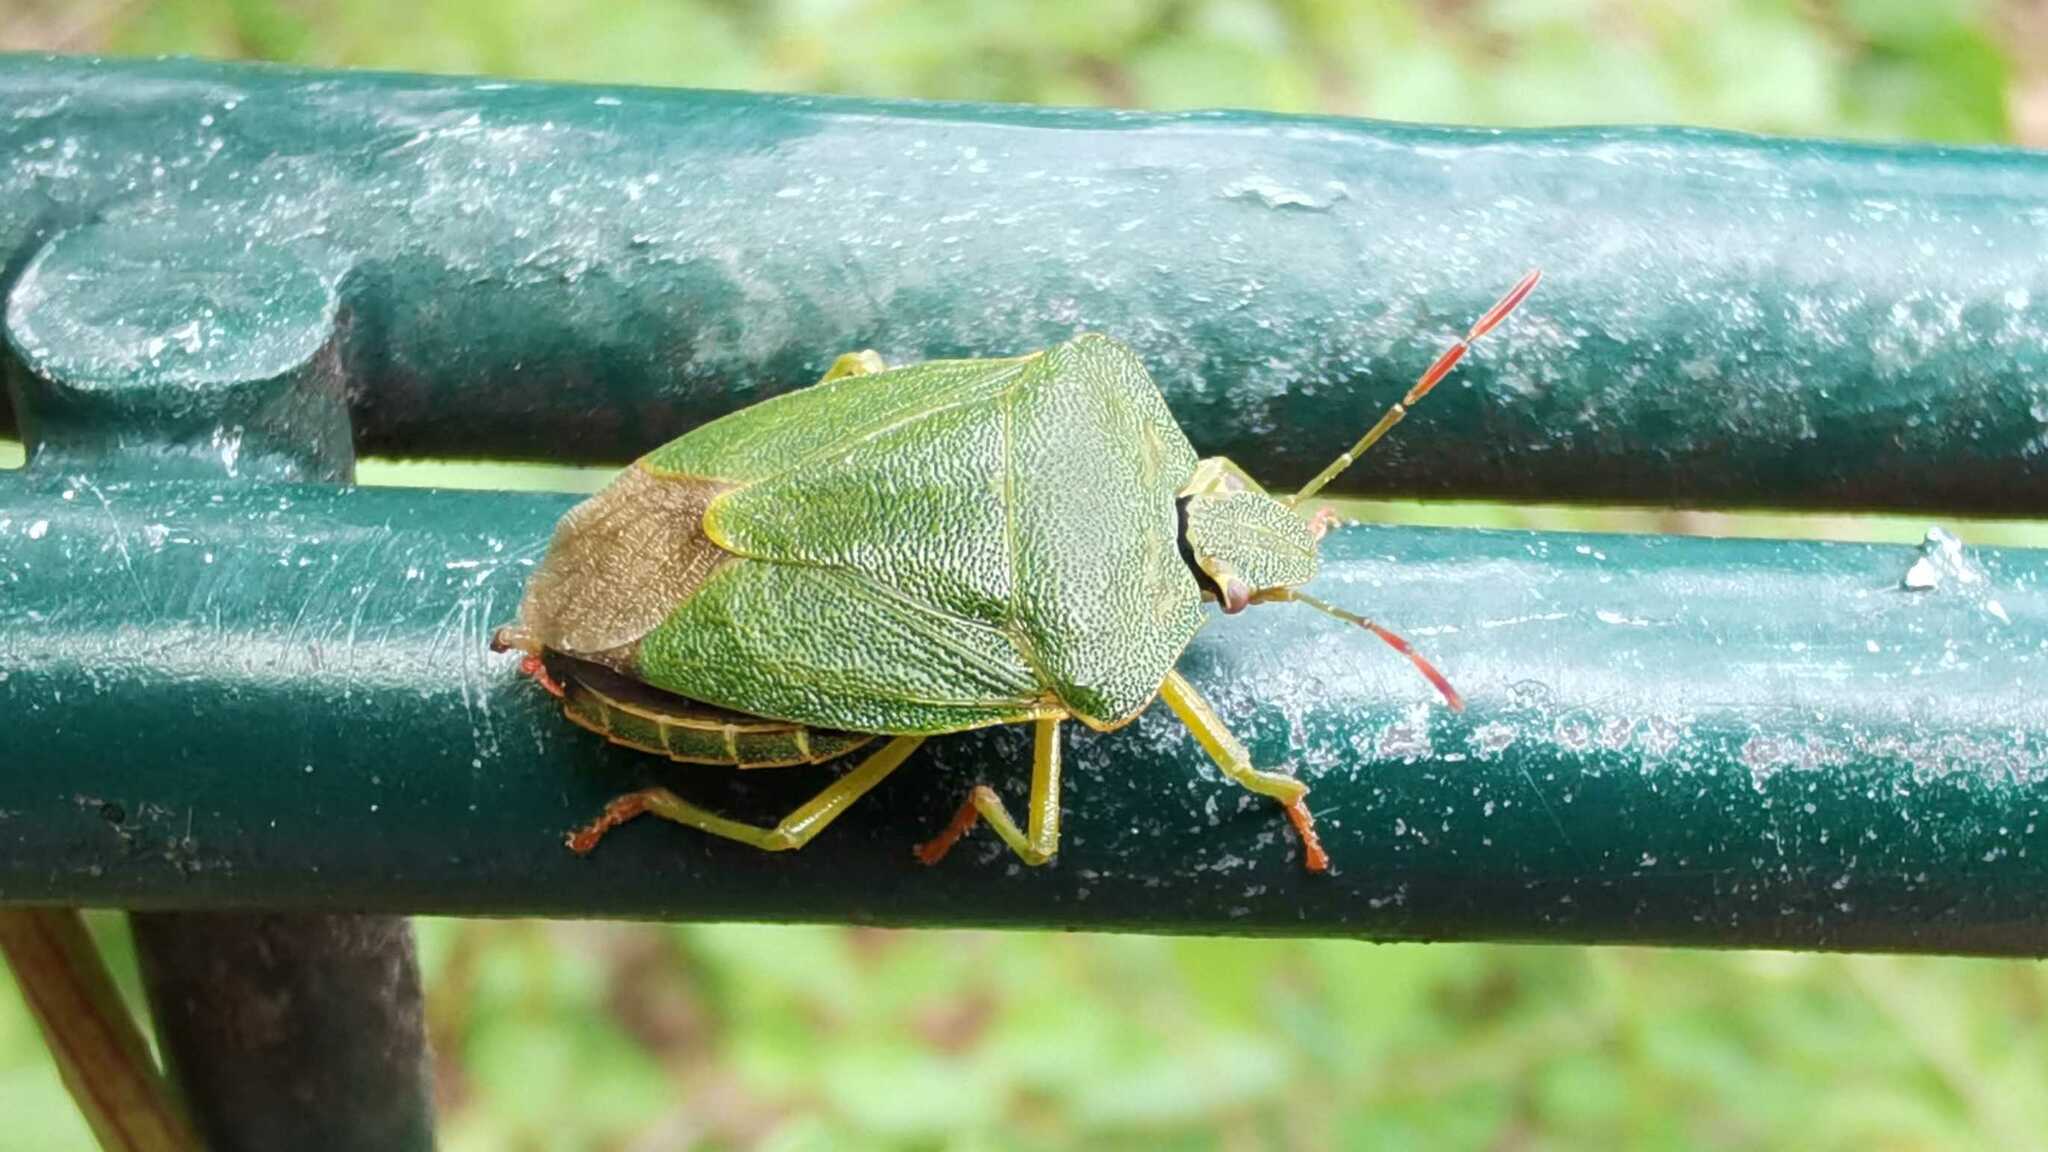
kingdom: Animalia
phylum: Arthropoda
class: Insecta
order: Hemiptera
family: Pentatomidae
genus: Palomena
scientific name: Palomena prasina
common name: Green shieldbug
